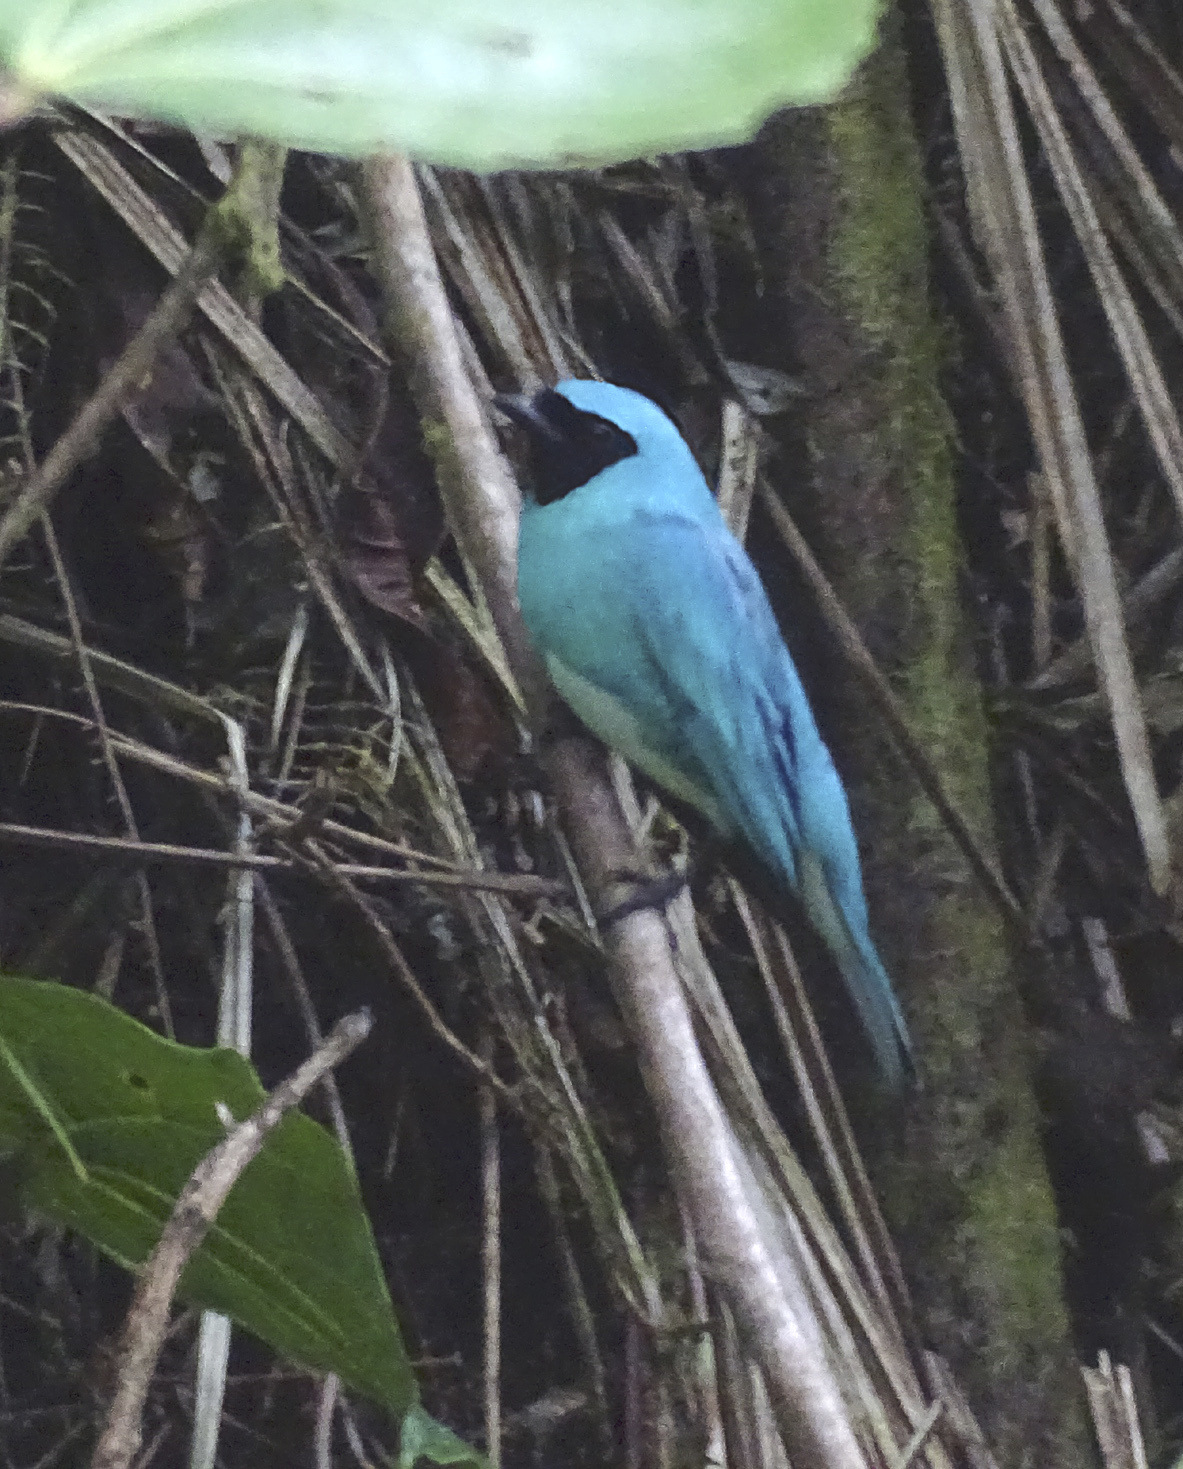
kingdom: Animalia
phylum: Chordata
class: Aves
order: Passeriformes
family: Thraupidae
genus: Tersina
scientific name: Tersina viridis
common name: Swallow tanager
